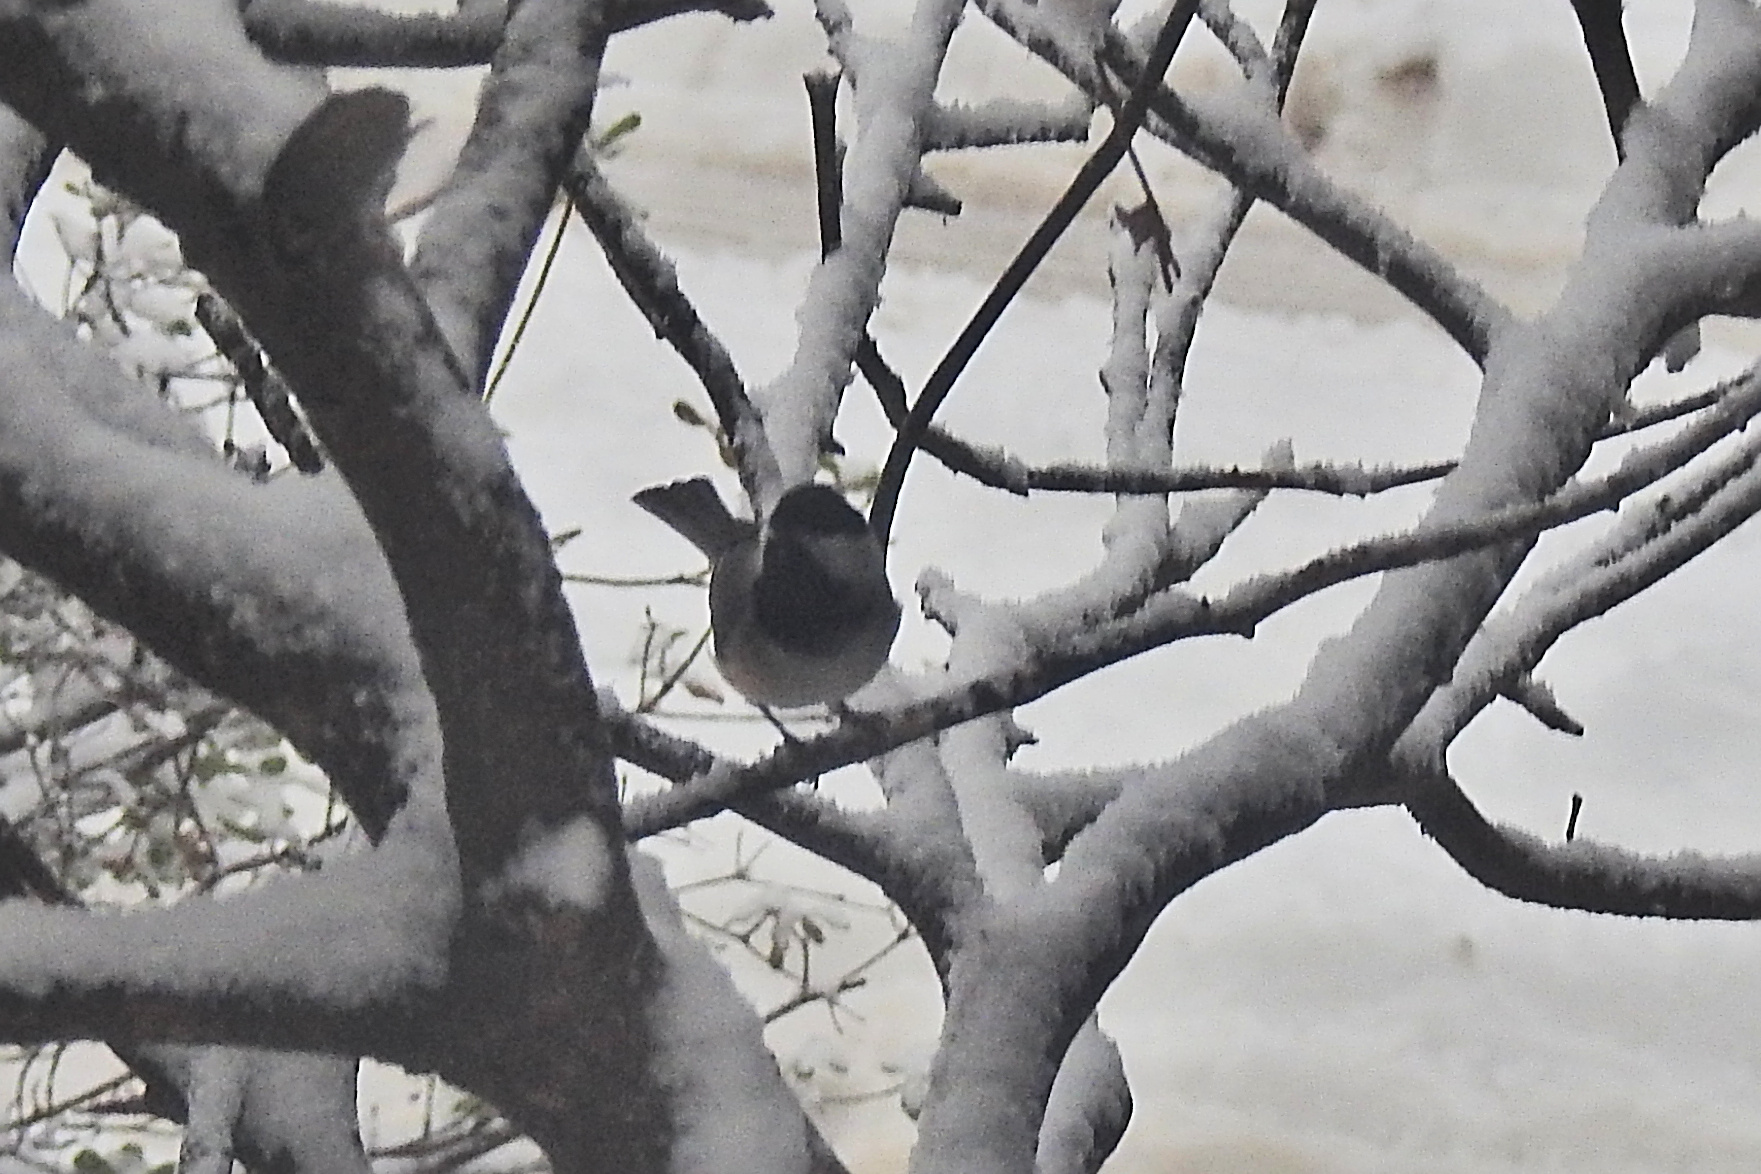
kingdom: Animalia
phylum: Chordata
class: Aves
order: Passeriformes
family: Paridae
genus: Poecile
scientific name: Poecile carolinensis
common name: Carolina chickadee
